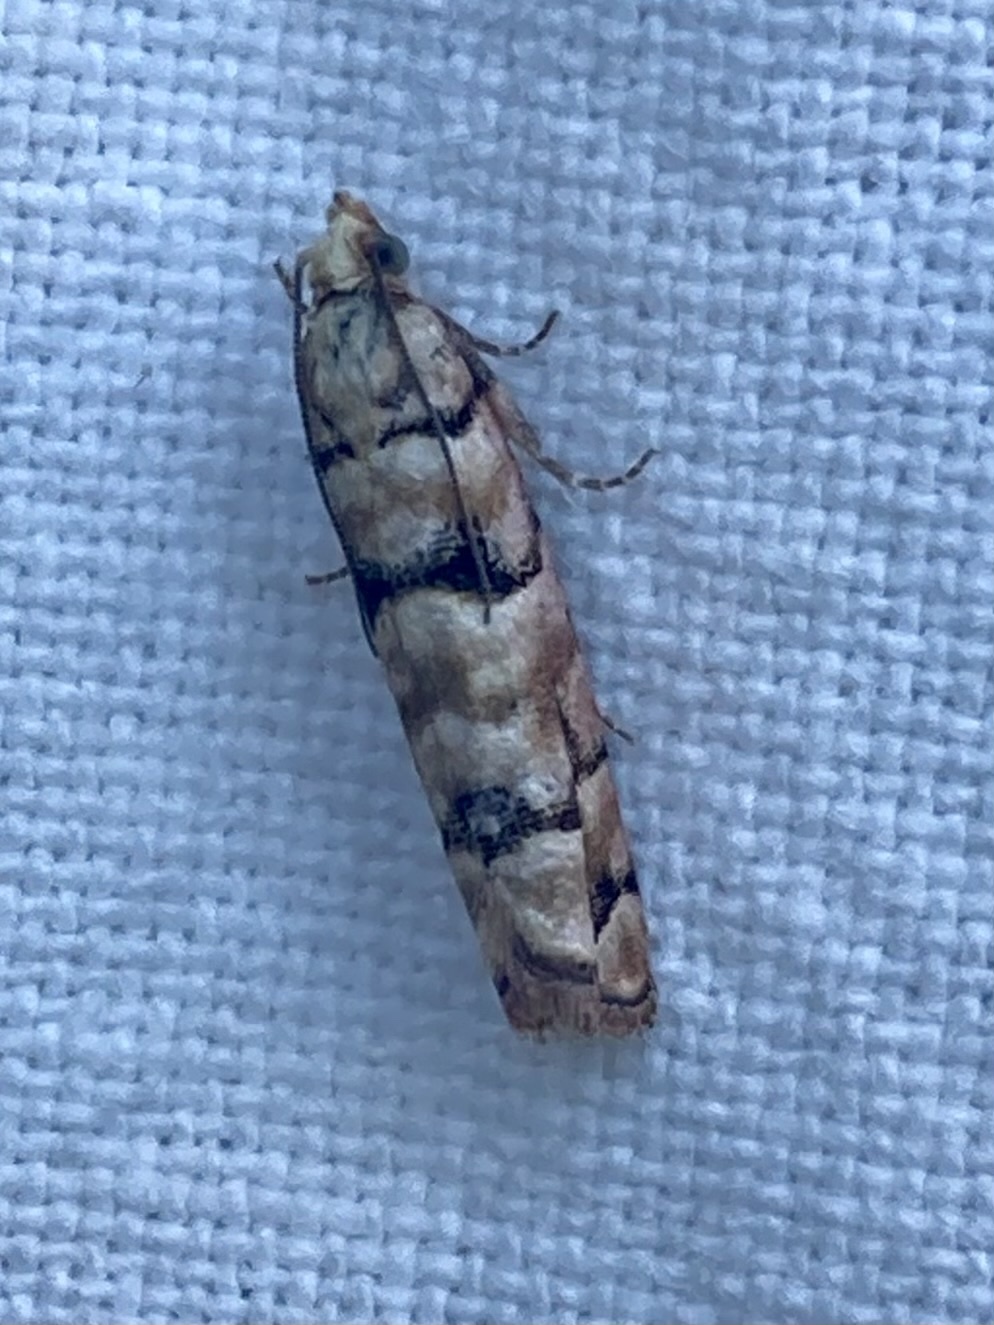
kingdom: Animalia
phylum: Arthropoda
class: Insecta
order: Lepidoptera
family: Tortricidae
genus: Blastesthia
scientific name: Blastesthia tessulatana
